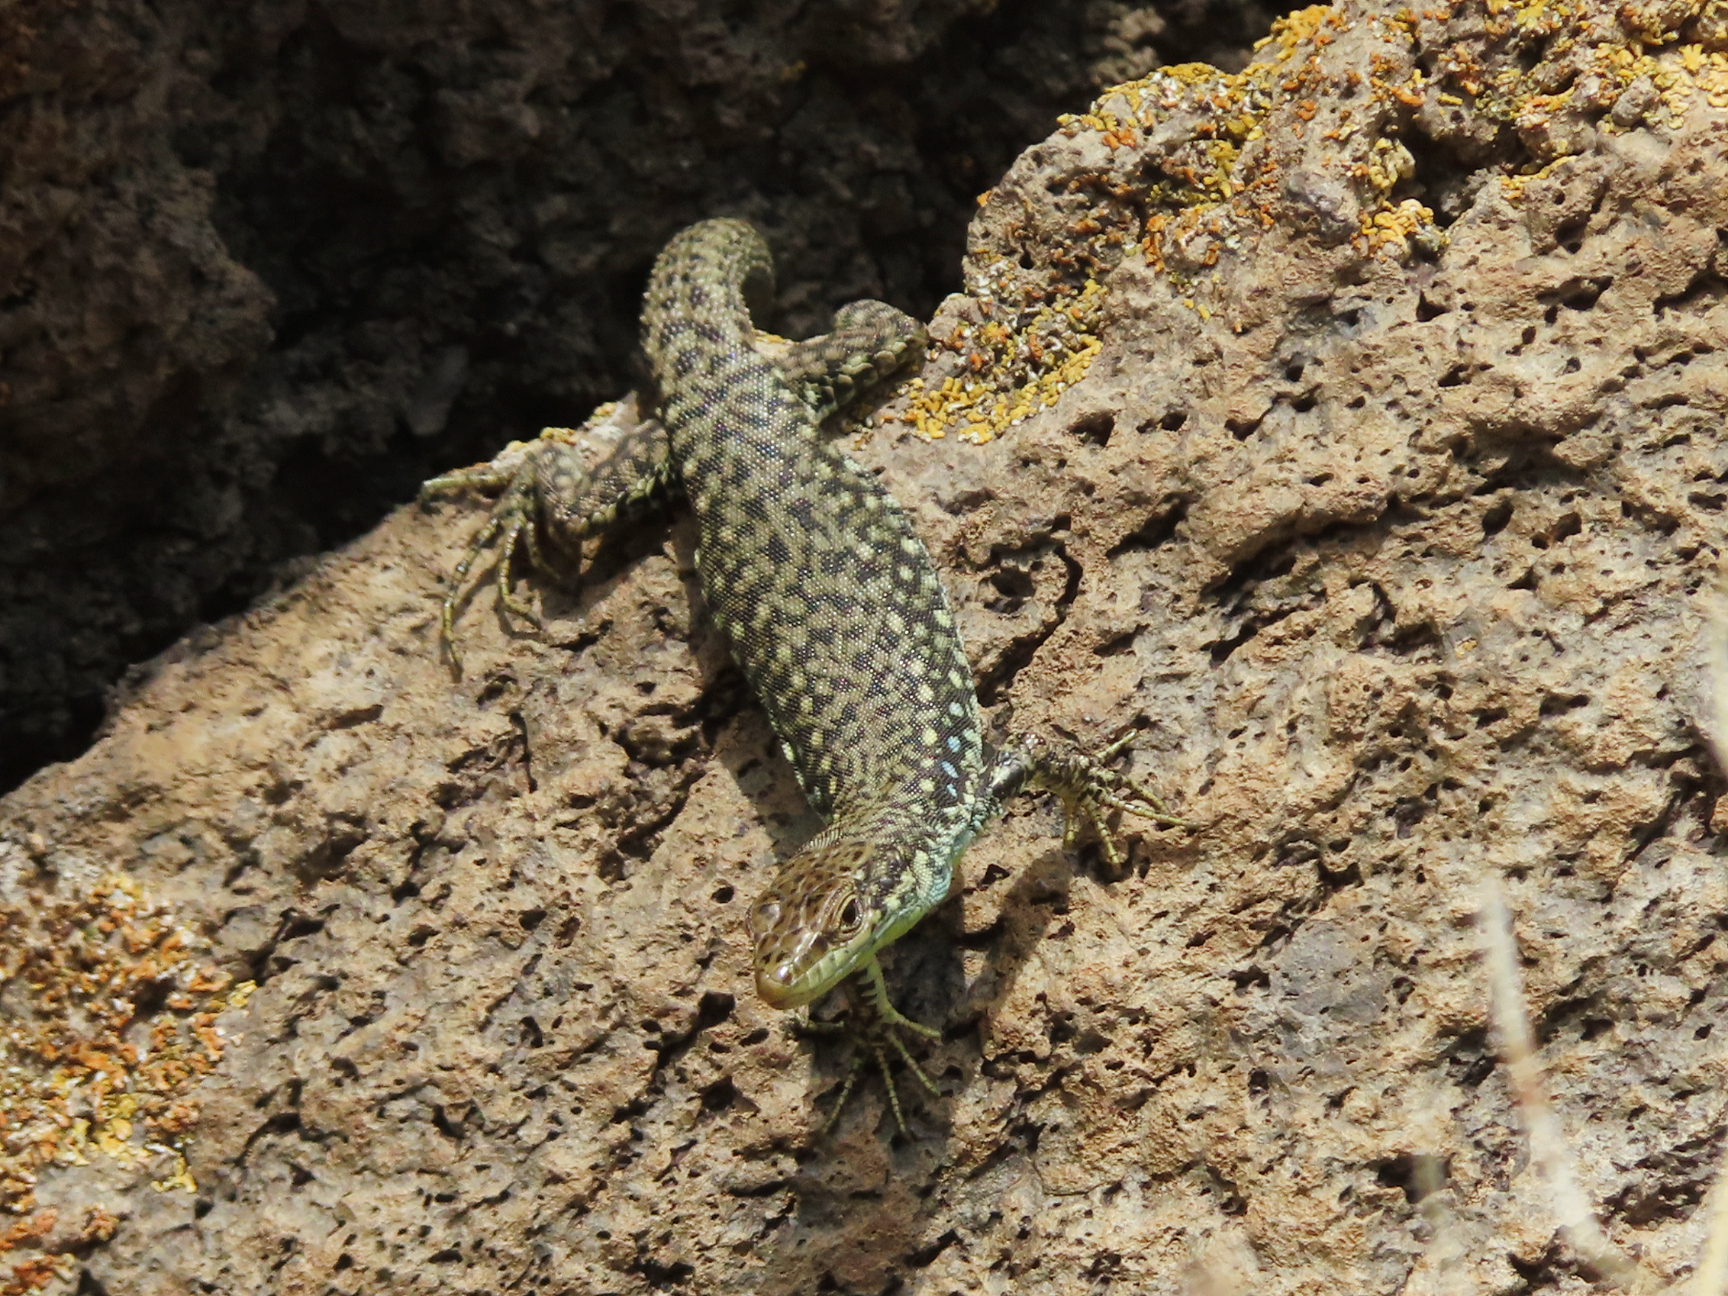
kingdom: Animalia
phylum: Chordata
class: Squamata
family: Lacertidae
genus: Darevskia
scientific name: Darevskia
